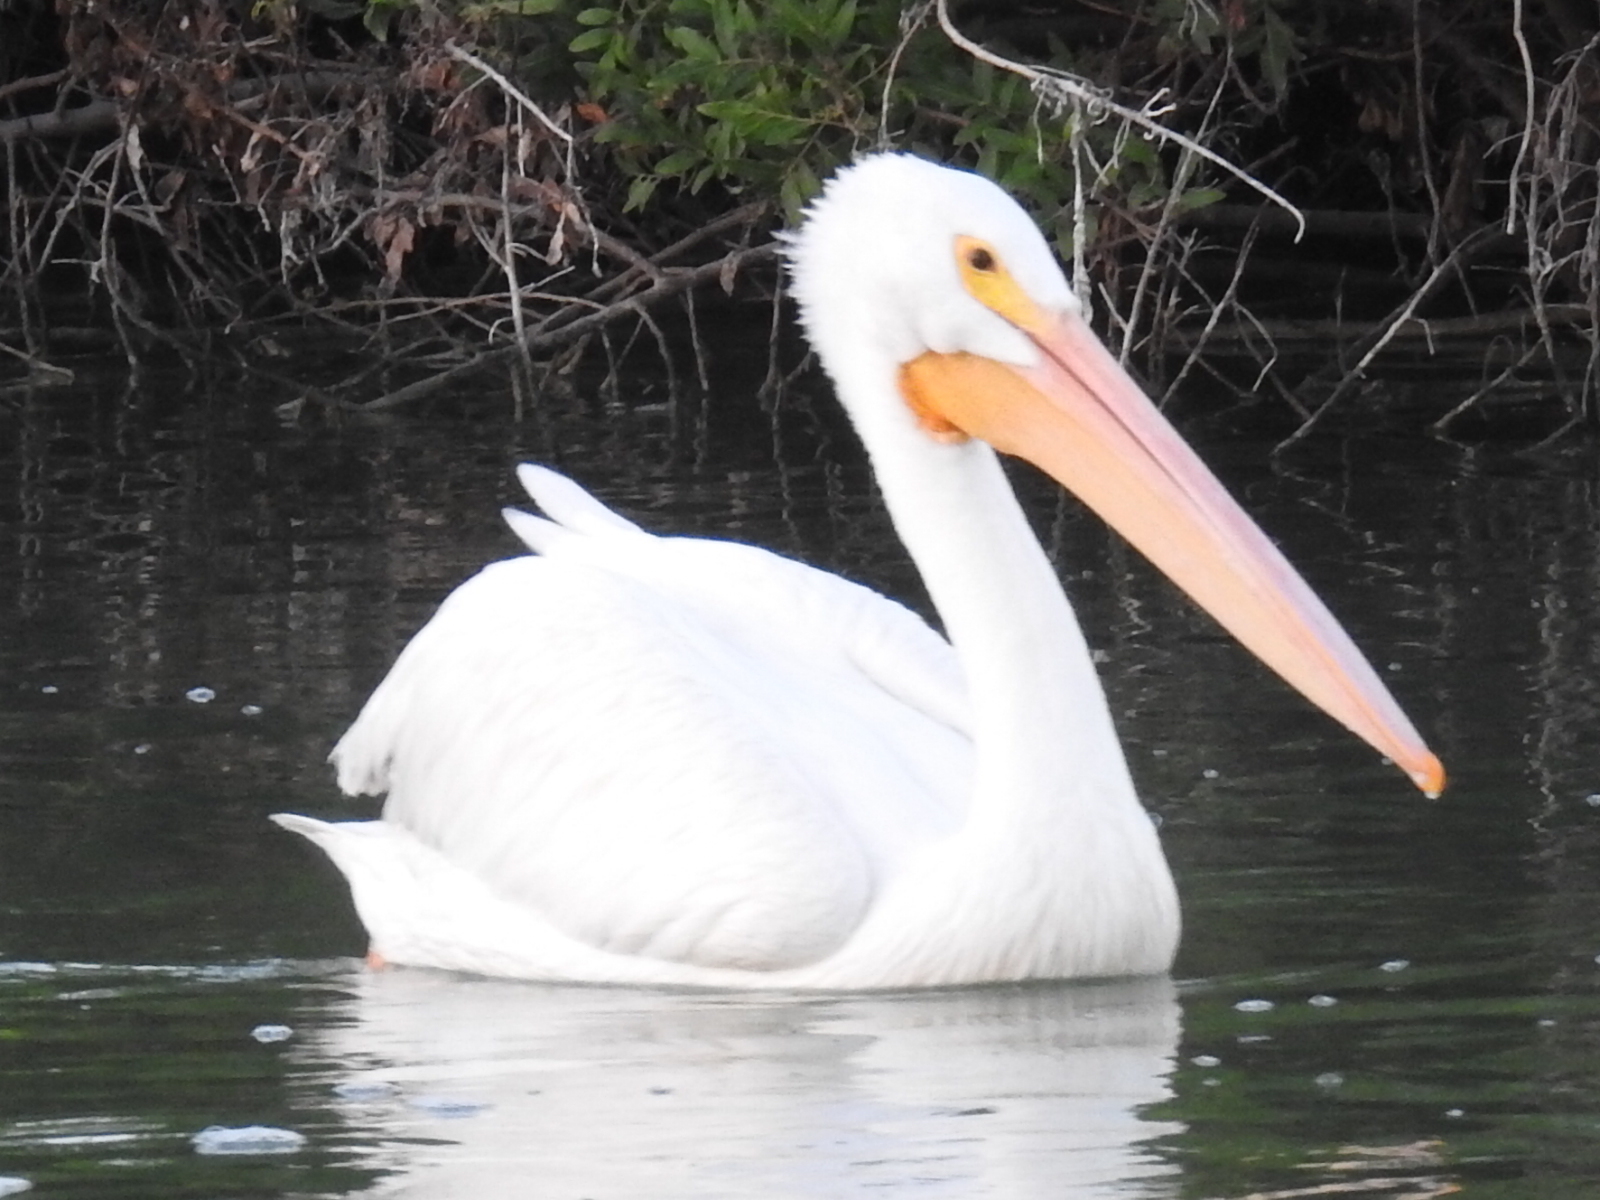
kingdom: Animalia
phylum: Chordata
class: Aves
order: Pelecaniformes
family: Pelecanidae
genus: Pelecanus
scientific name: Pelecanus erythrorhynchos
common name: American white pelican
